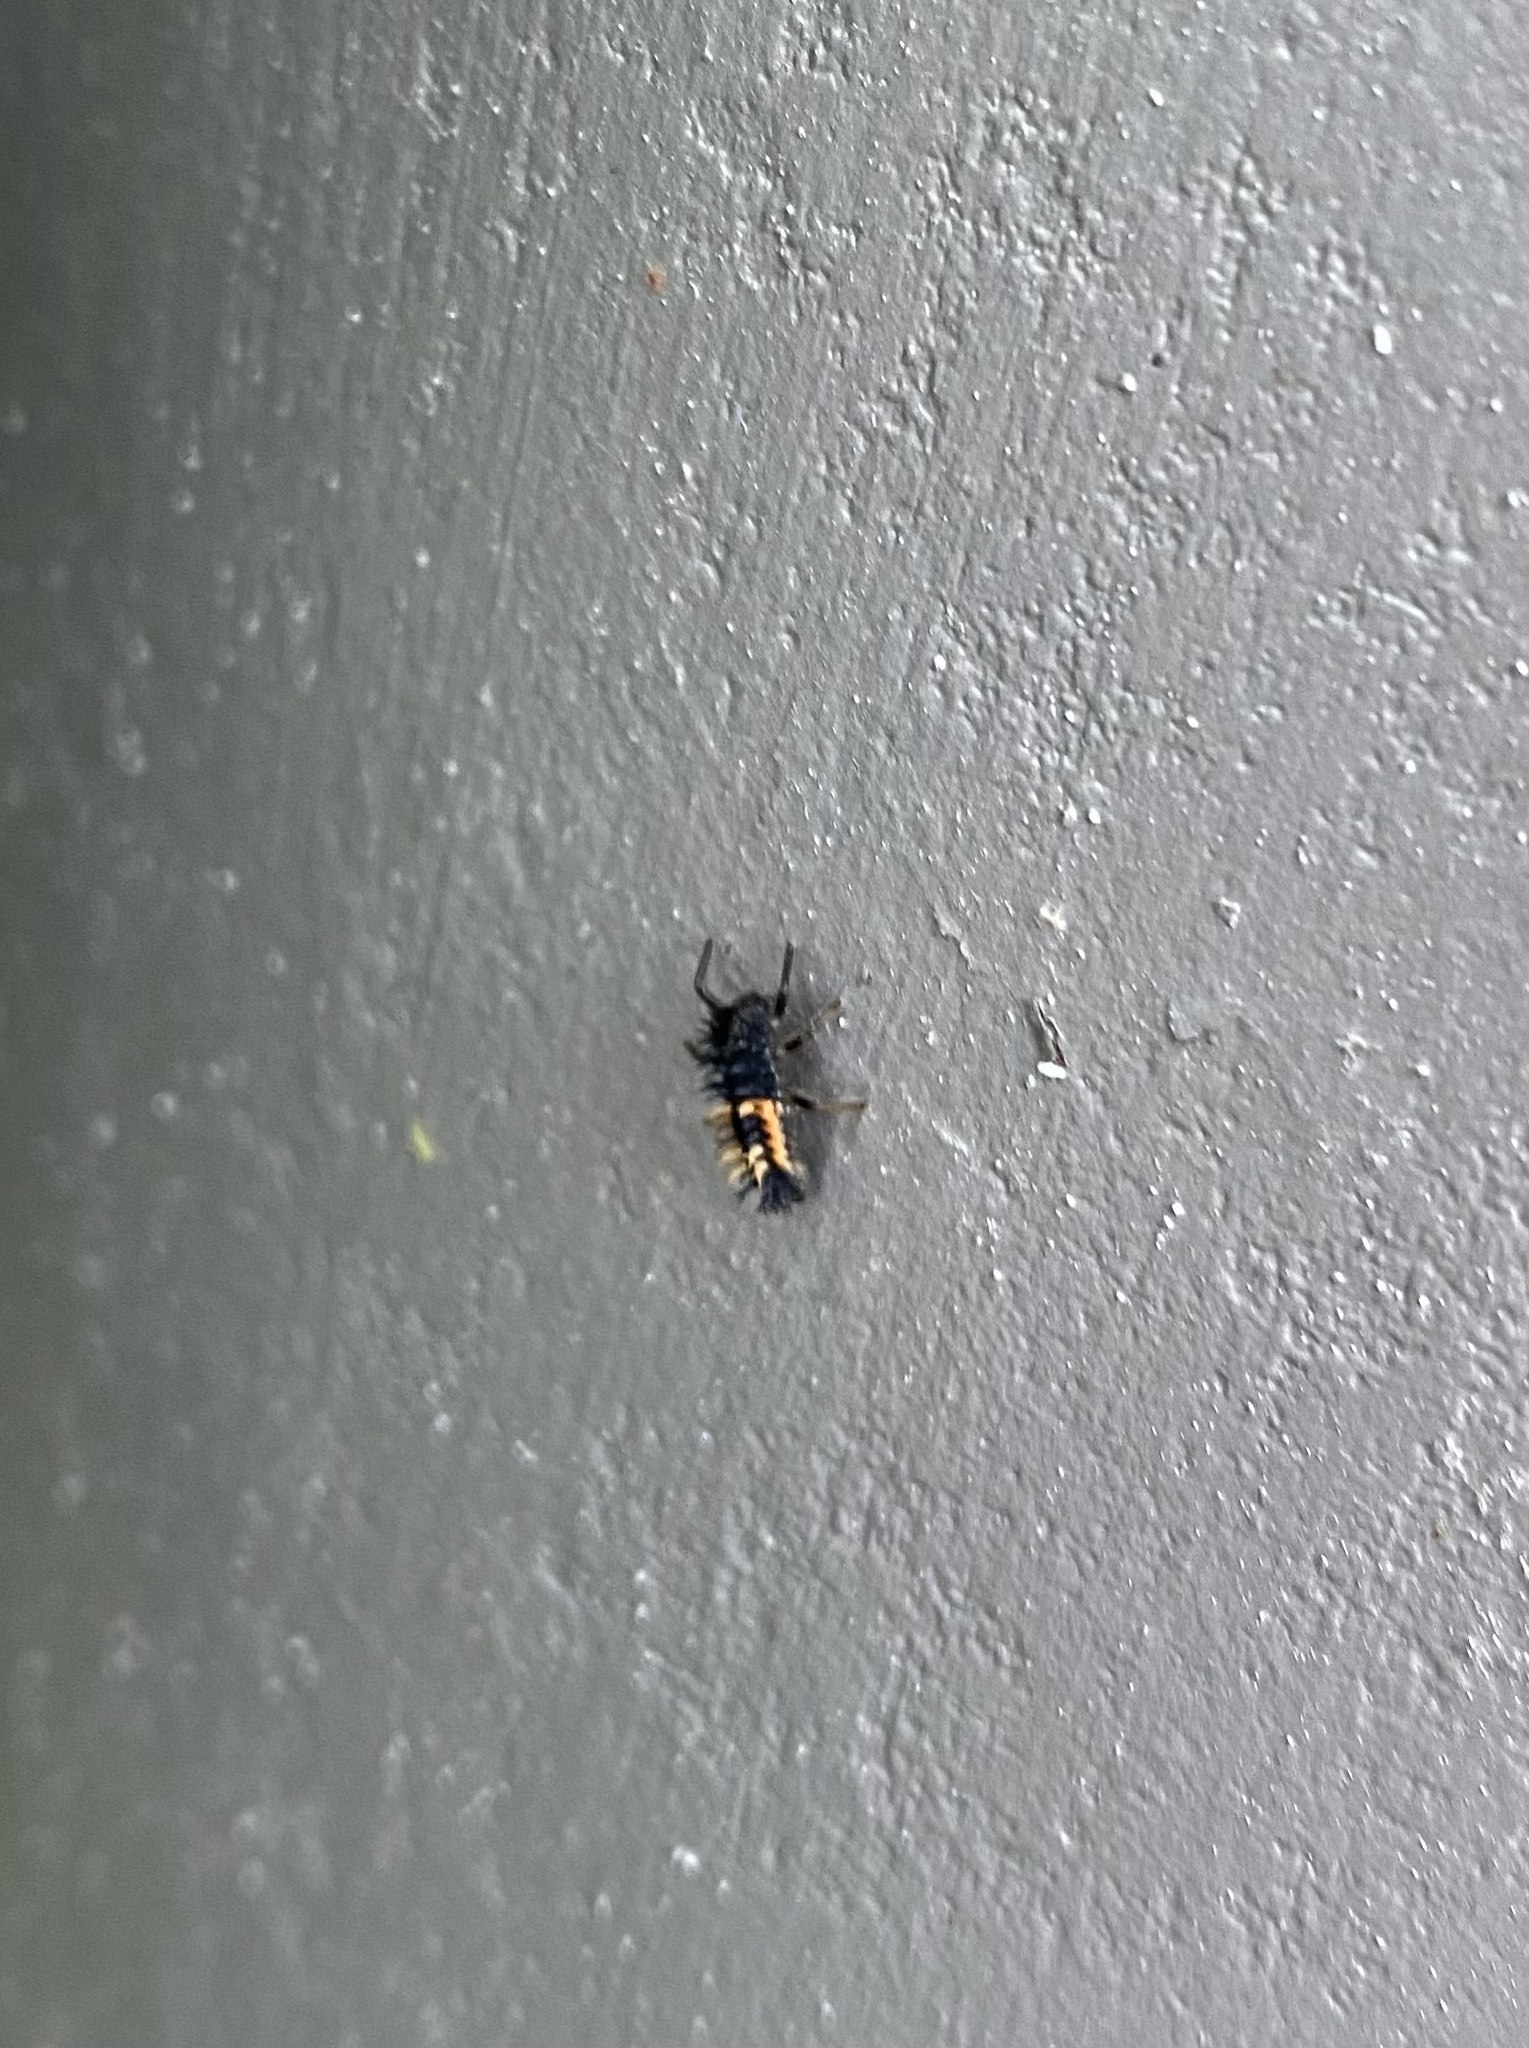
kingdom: Animalia
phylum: Arthropoda
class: Insecta
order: Coleoptera
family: Coccinellidae
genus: Harmonia
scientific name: Harmonia axyridis
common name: Harlequin ladybird
